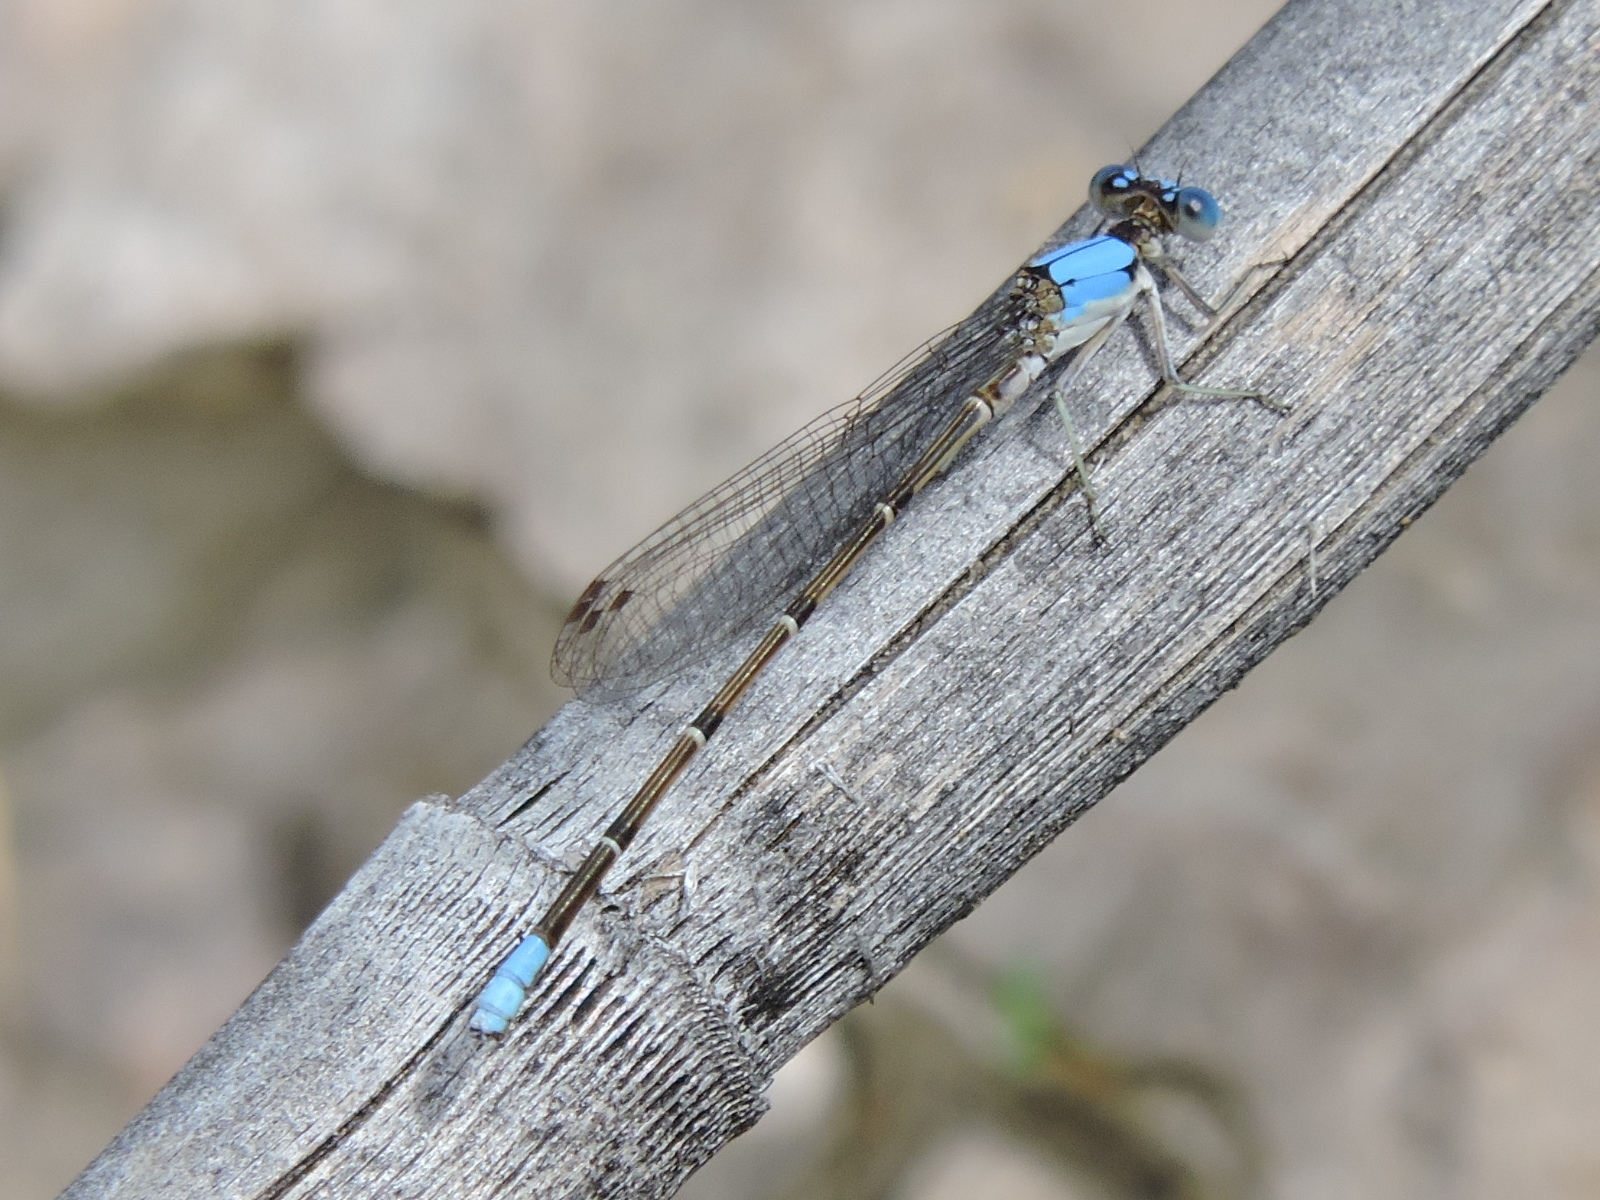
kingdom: Animalia
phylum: Arthropoda
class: Insecta
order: Odonata
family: Coenagrionidae
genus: Argia
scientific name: Argia apicalis
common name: Blue-fronted dancer
